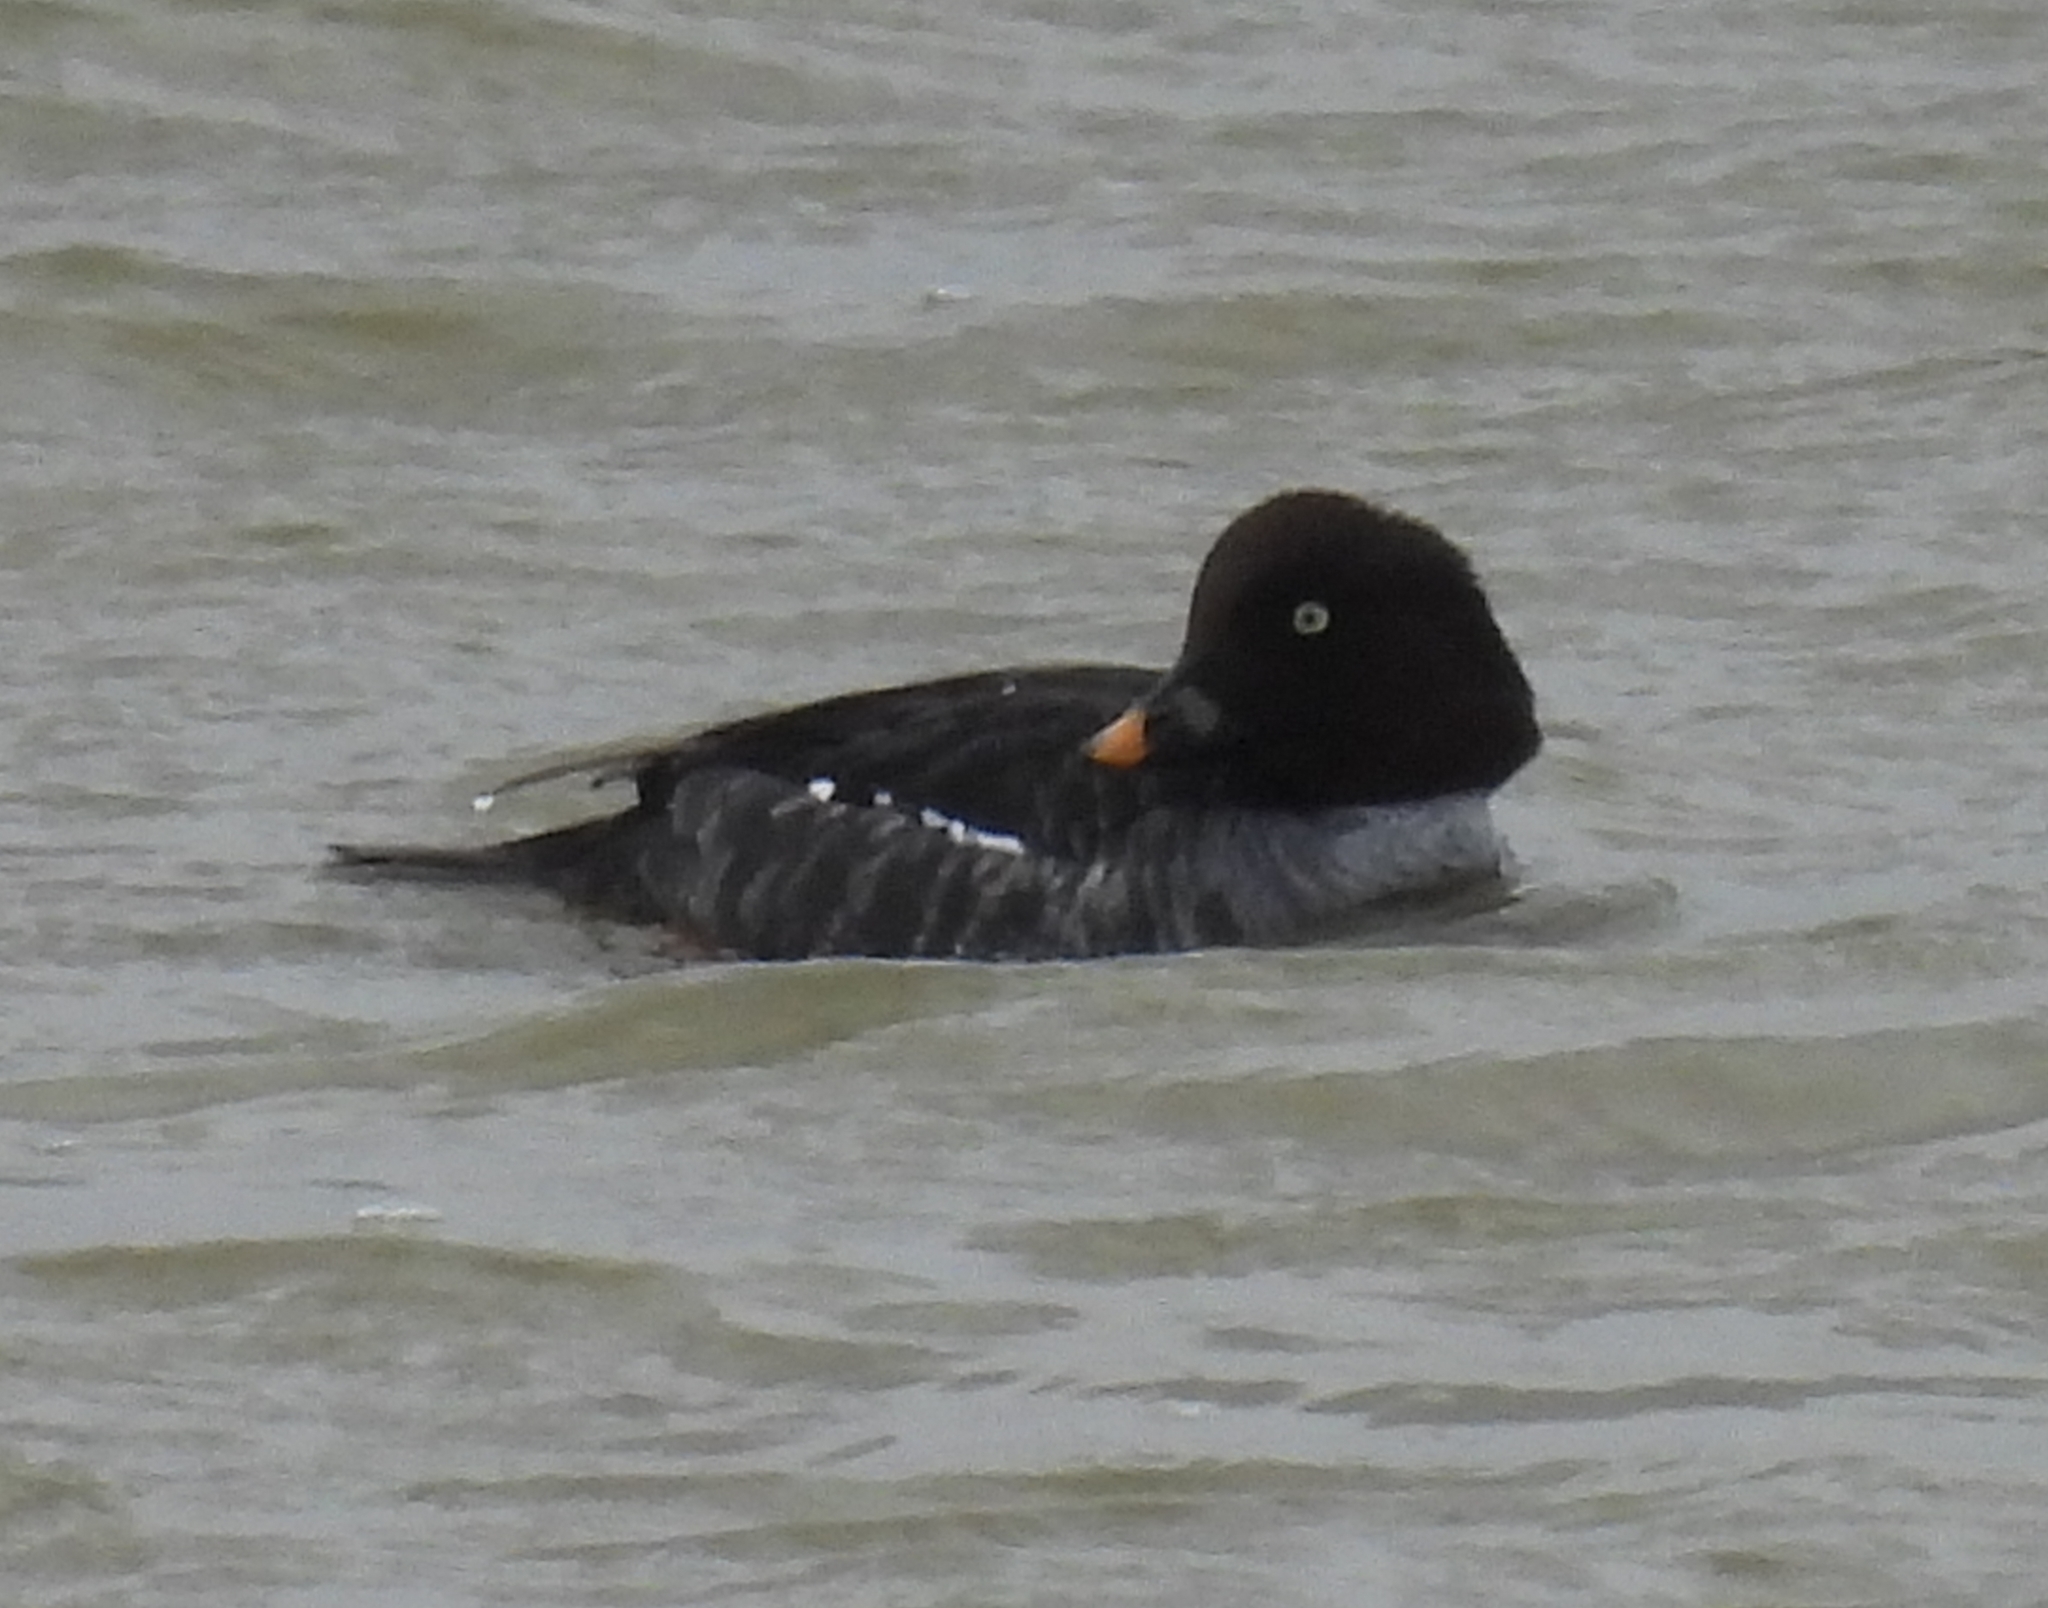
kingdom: Animalia
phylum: Chordata
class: Aves
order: Anseriformes
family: Anatidae
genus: Bucephala
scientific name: Bucephala clangula
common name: Common goldeneye
